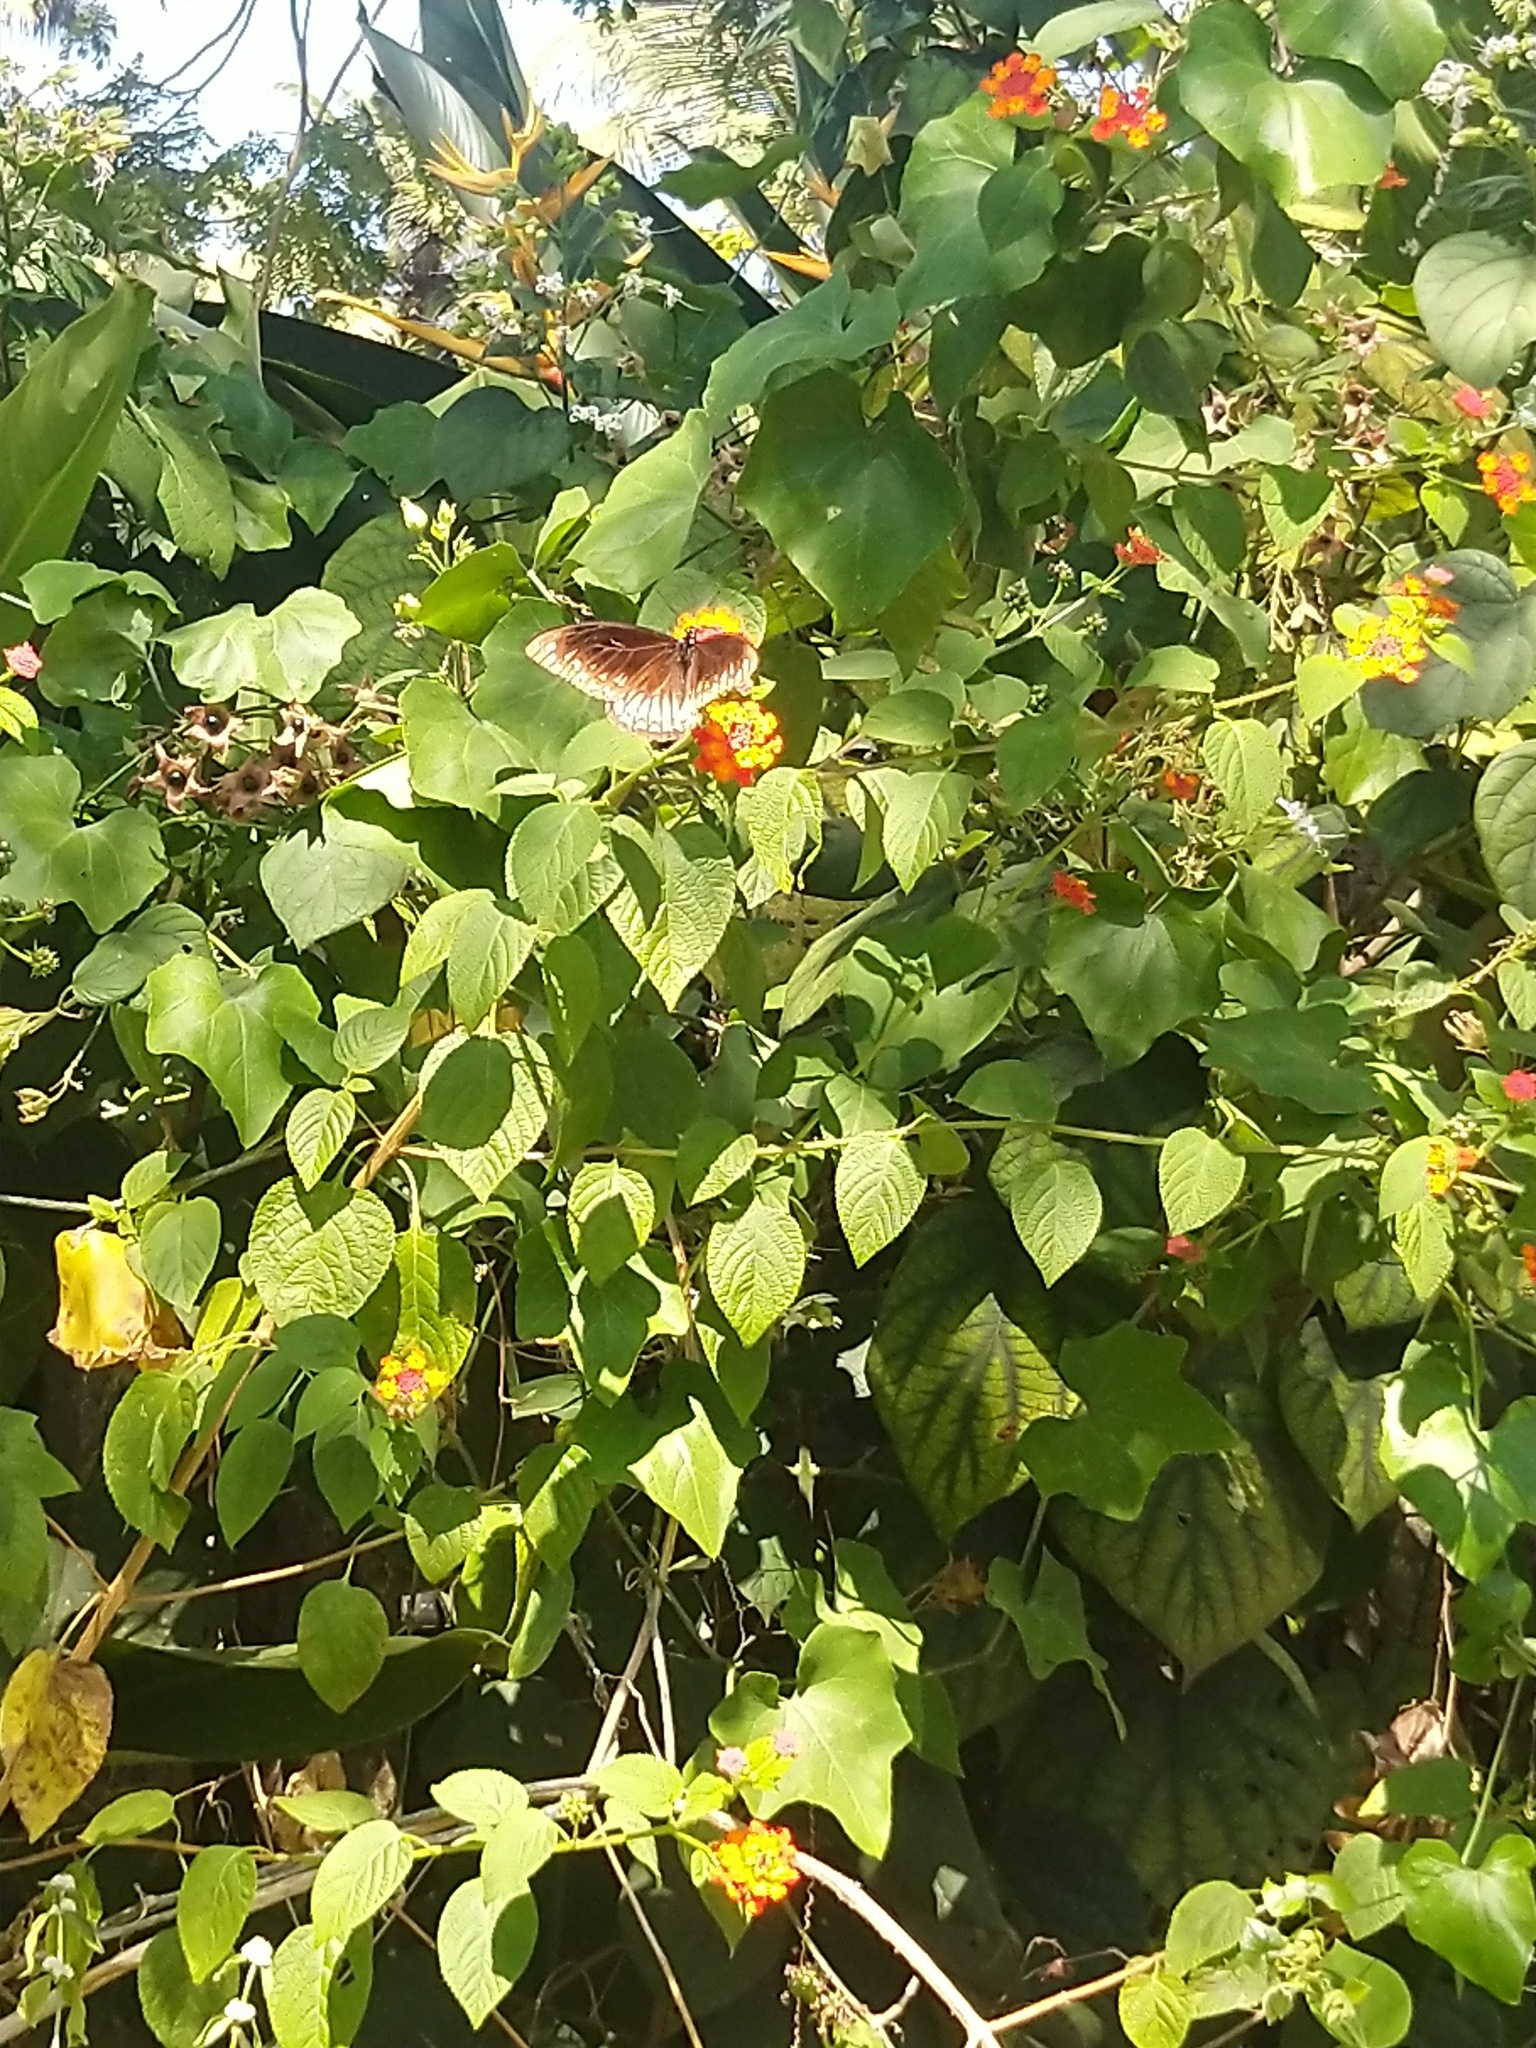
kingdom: Animalia
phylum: Arthropoda
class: Insecta
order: Lepidoptera
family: Papilionidae
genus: Chilasa
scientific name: Chilasa clytia
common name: Common mime
